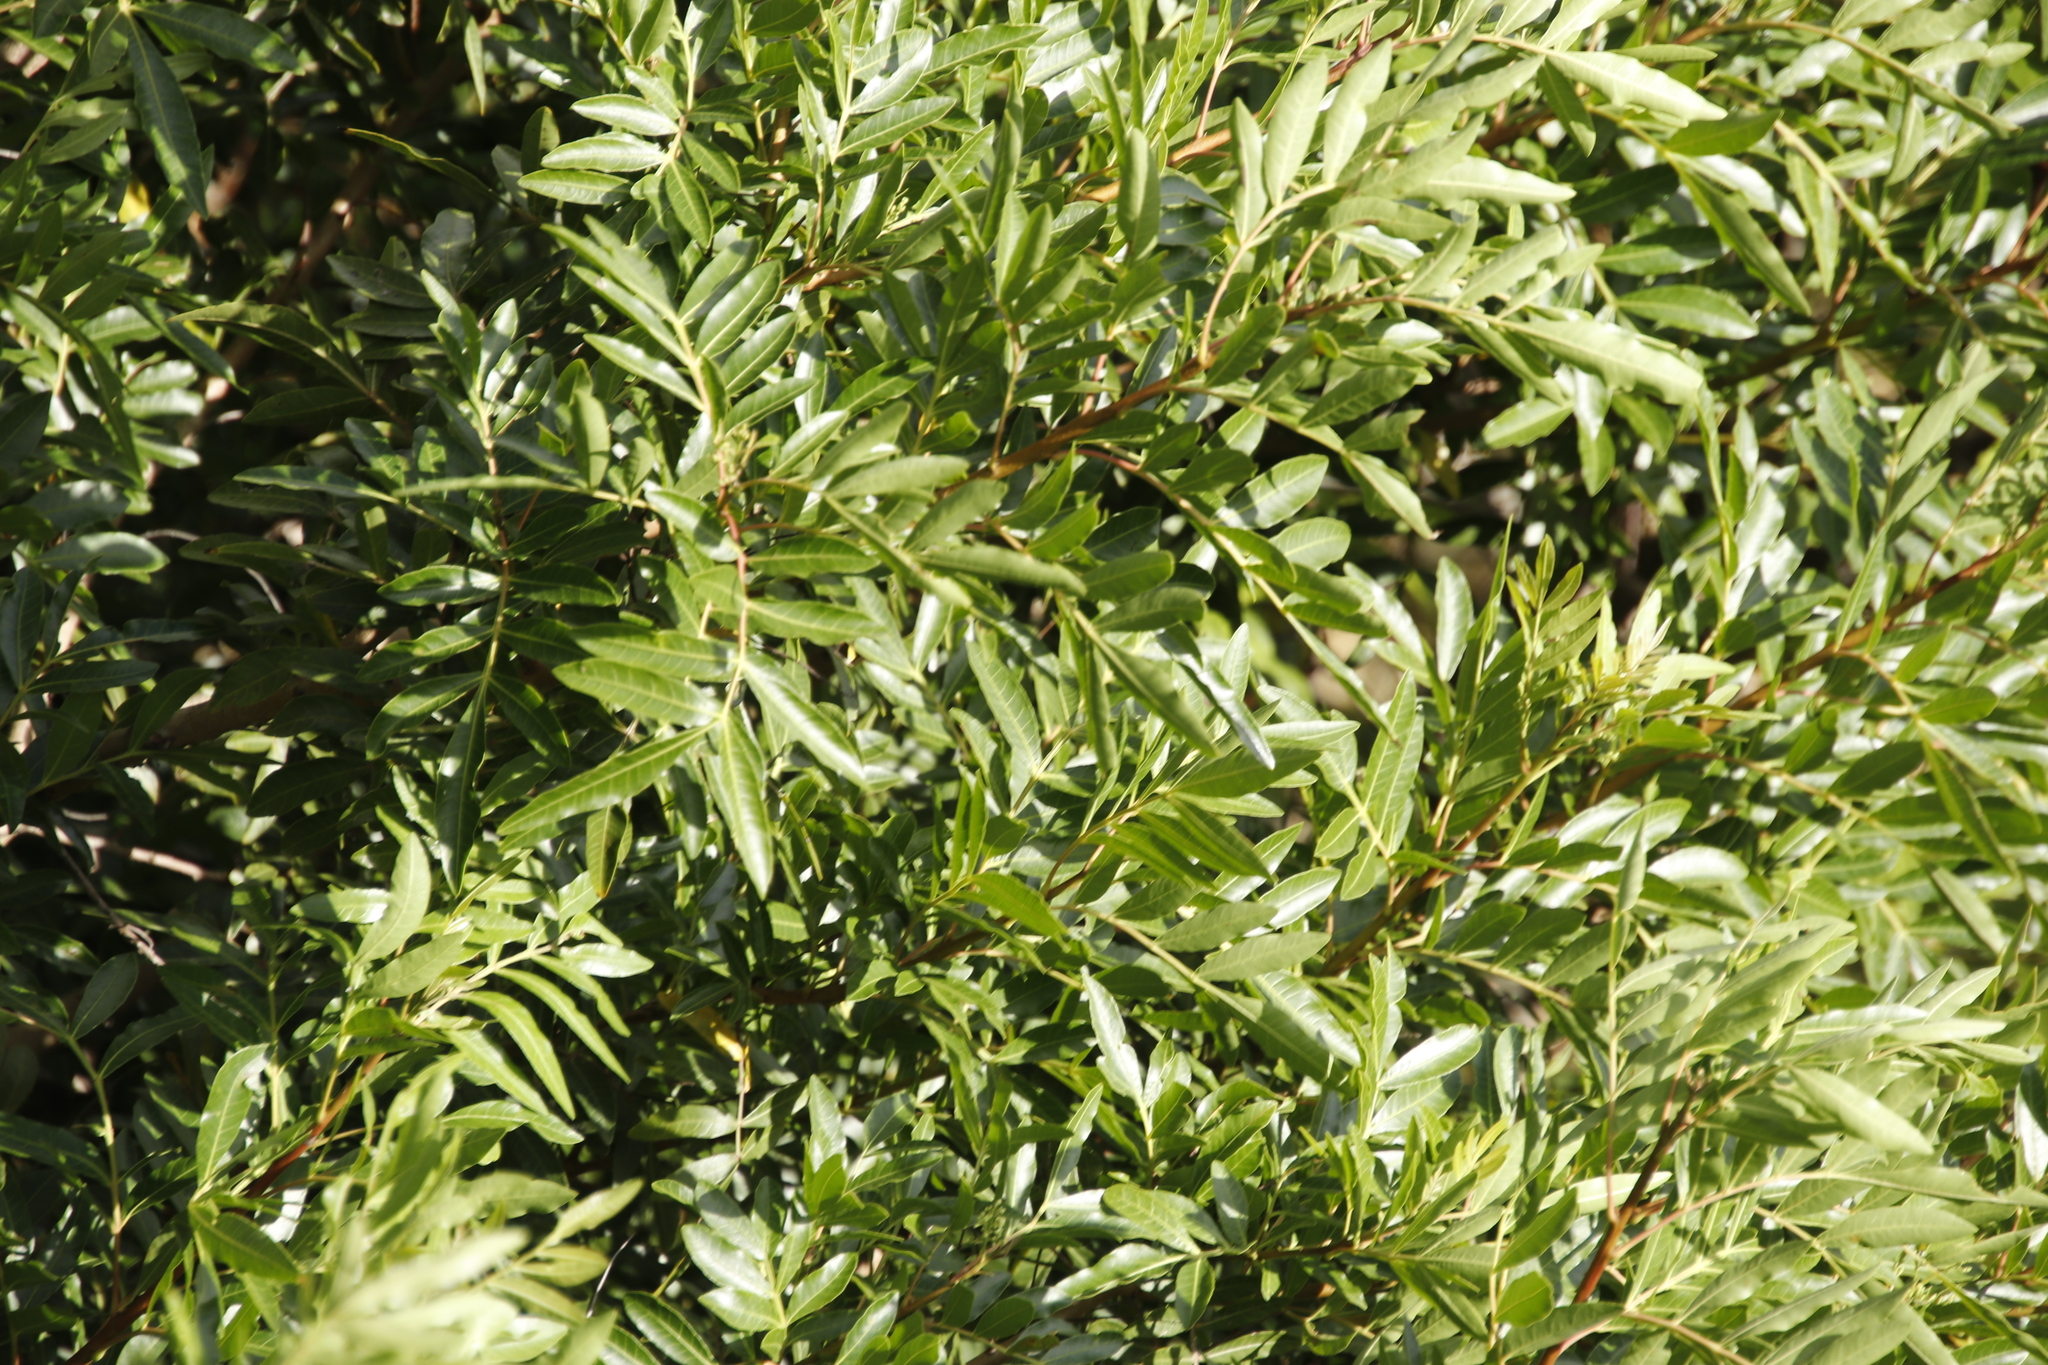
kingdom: Plantae
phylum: Tracheophyta
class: Magnoliopsida
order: Sapindales
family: Anacardiaceae
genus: Schinus
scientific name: Schinus terebinthifolia
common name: Brazilian peppertree
